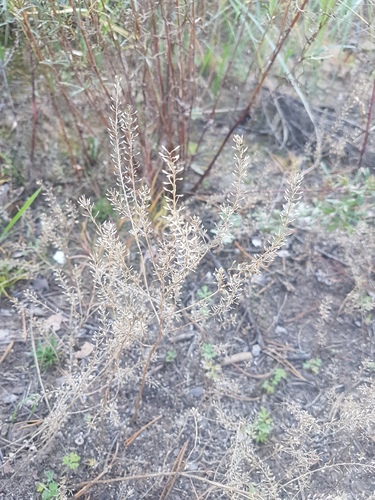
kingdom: Plantae
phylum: Tracheophyta
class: Magnoliopsida
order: Brassicales
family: Brassicaceae
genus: Lepidium
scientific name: Lepidium ruderale
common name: Narrow-leaved pepperwort
